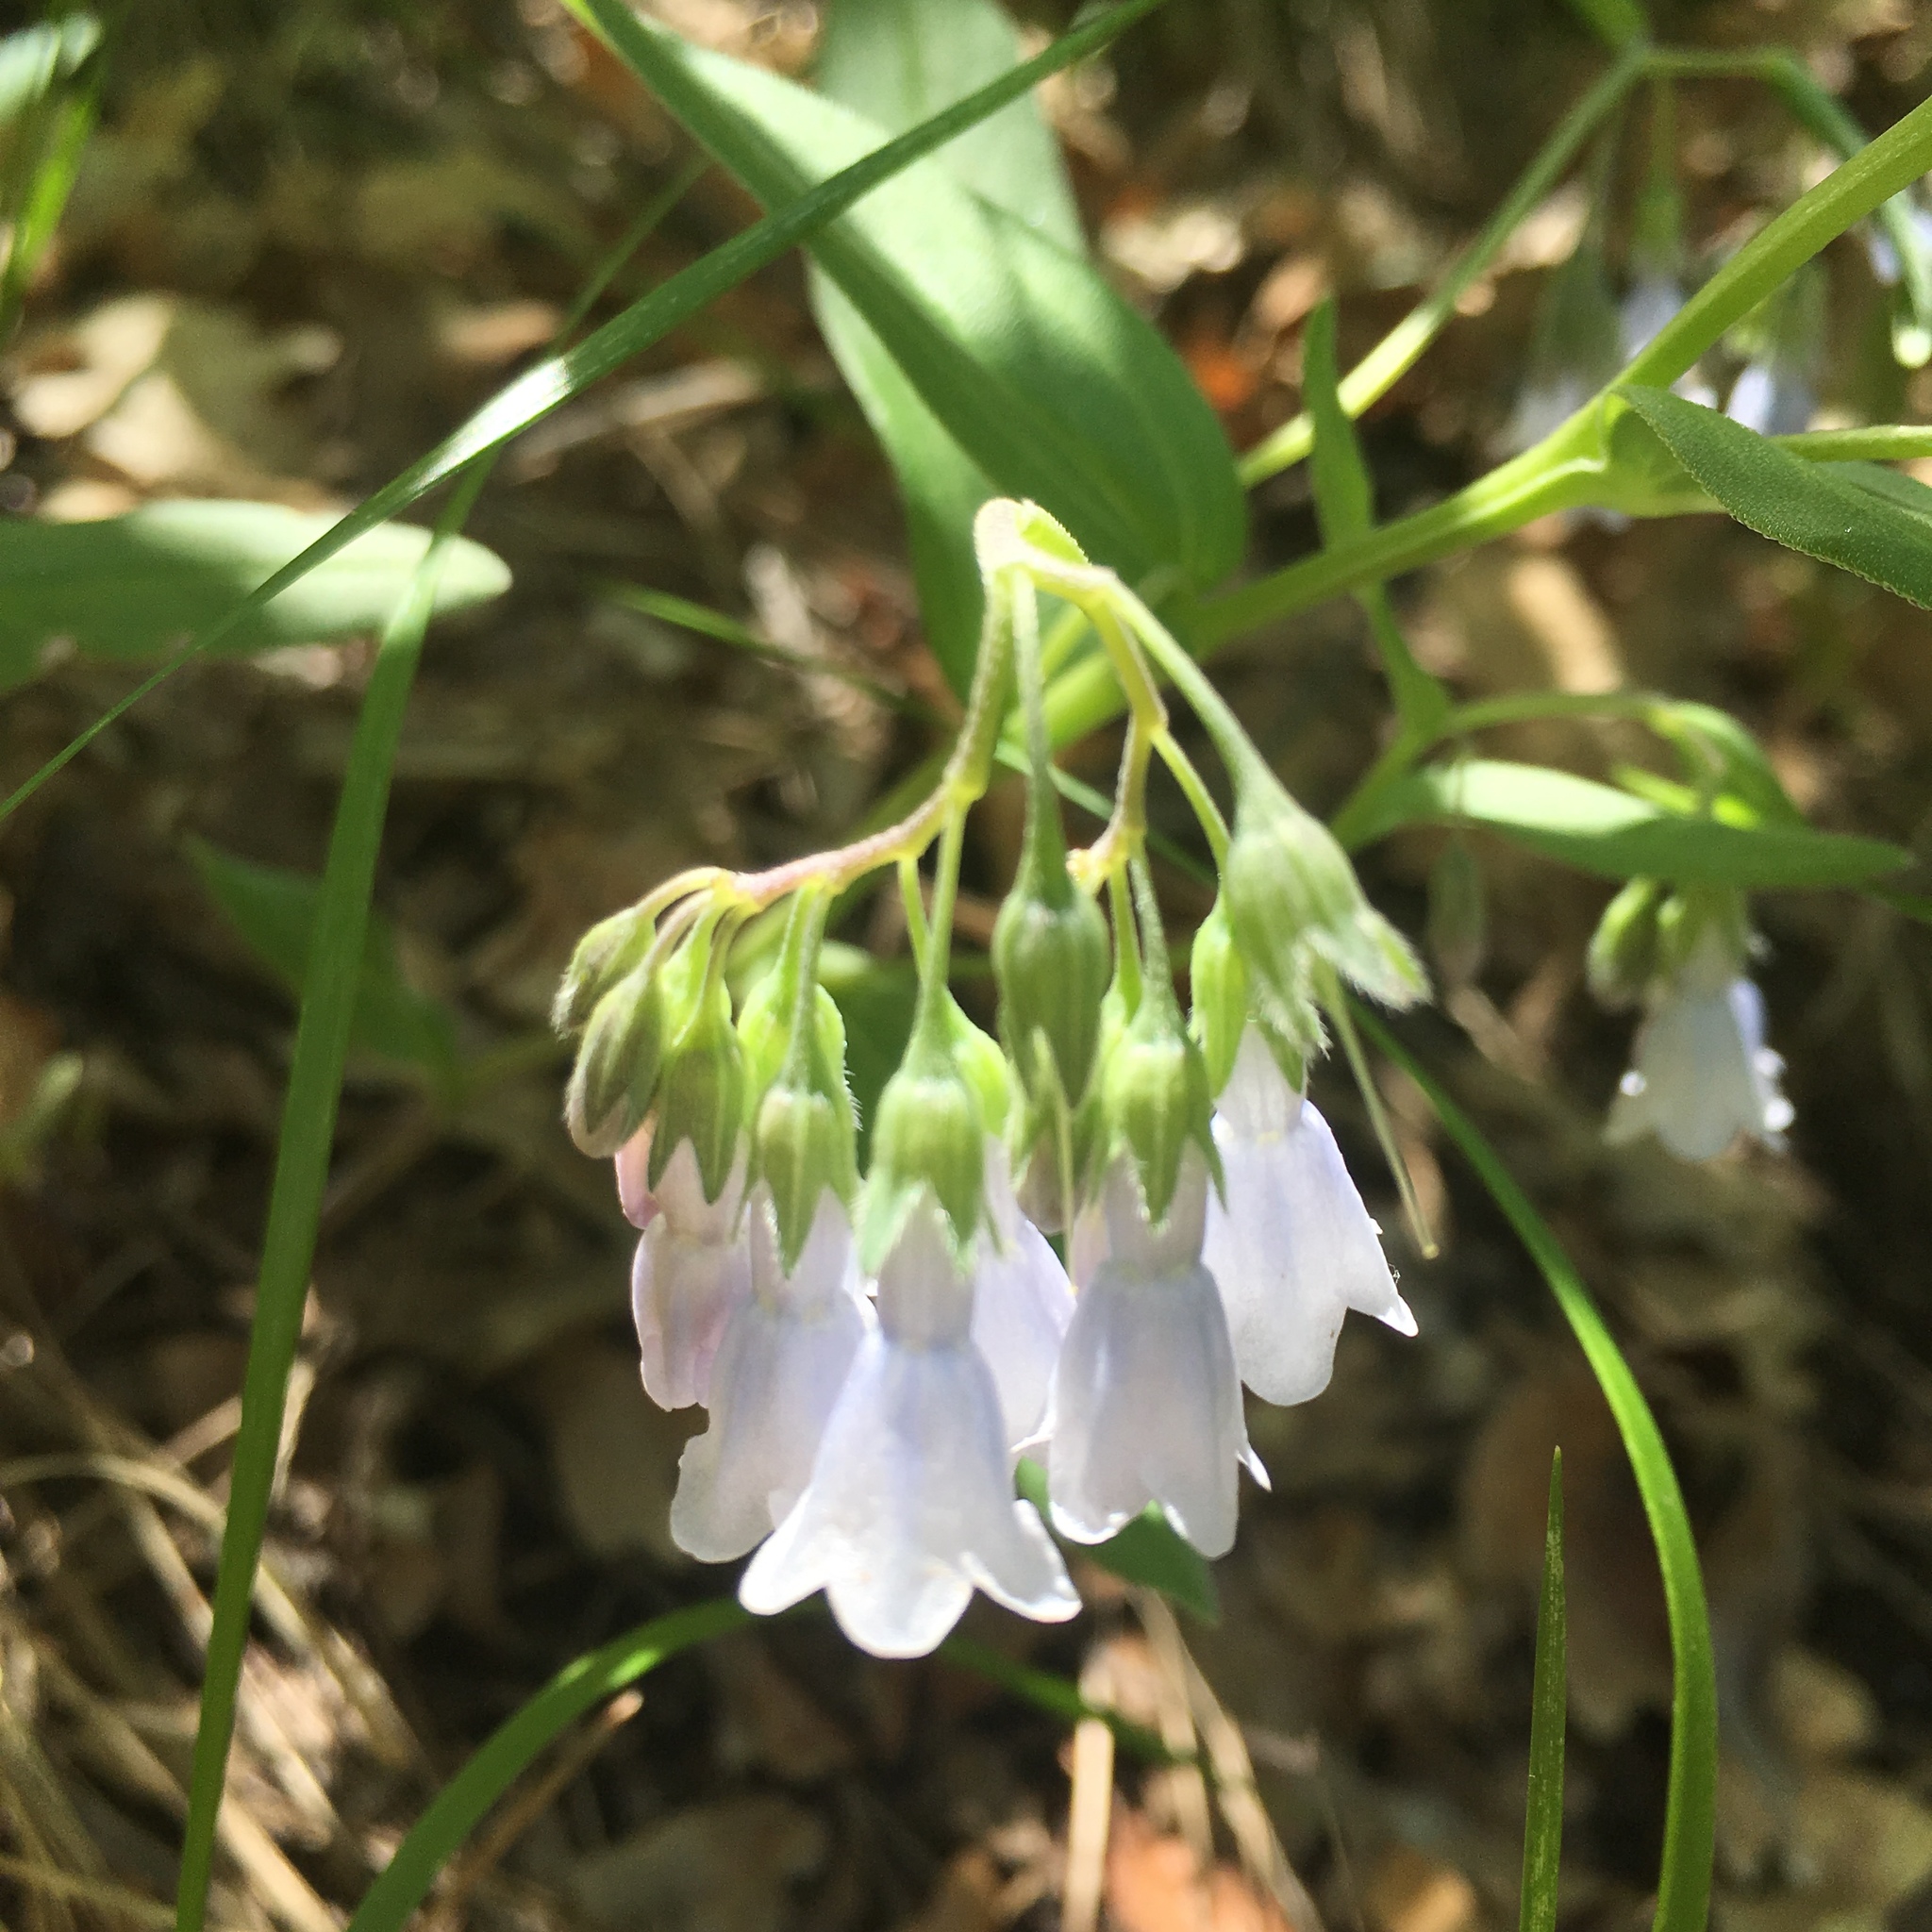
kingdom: Plantae
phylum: Tracheophyta
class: Magnoliopsida
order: Boraginales
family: Boraginaceae
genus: Mertensia
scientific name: Mertensia fendleri
